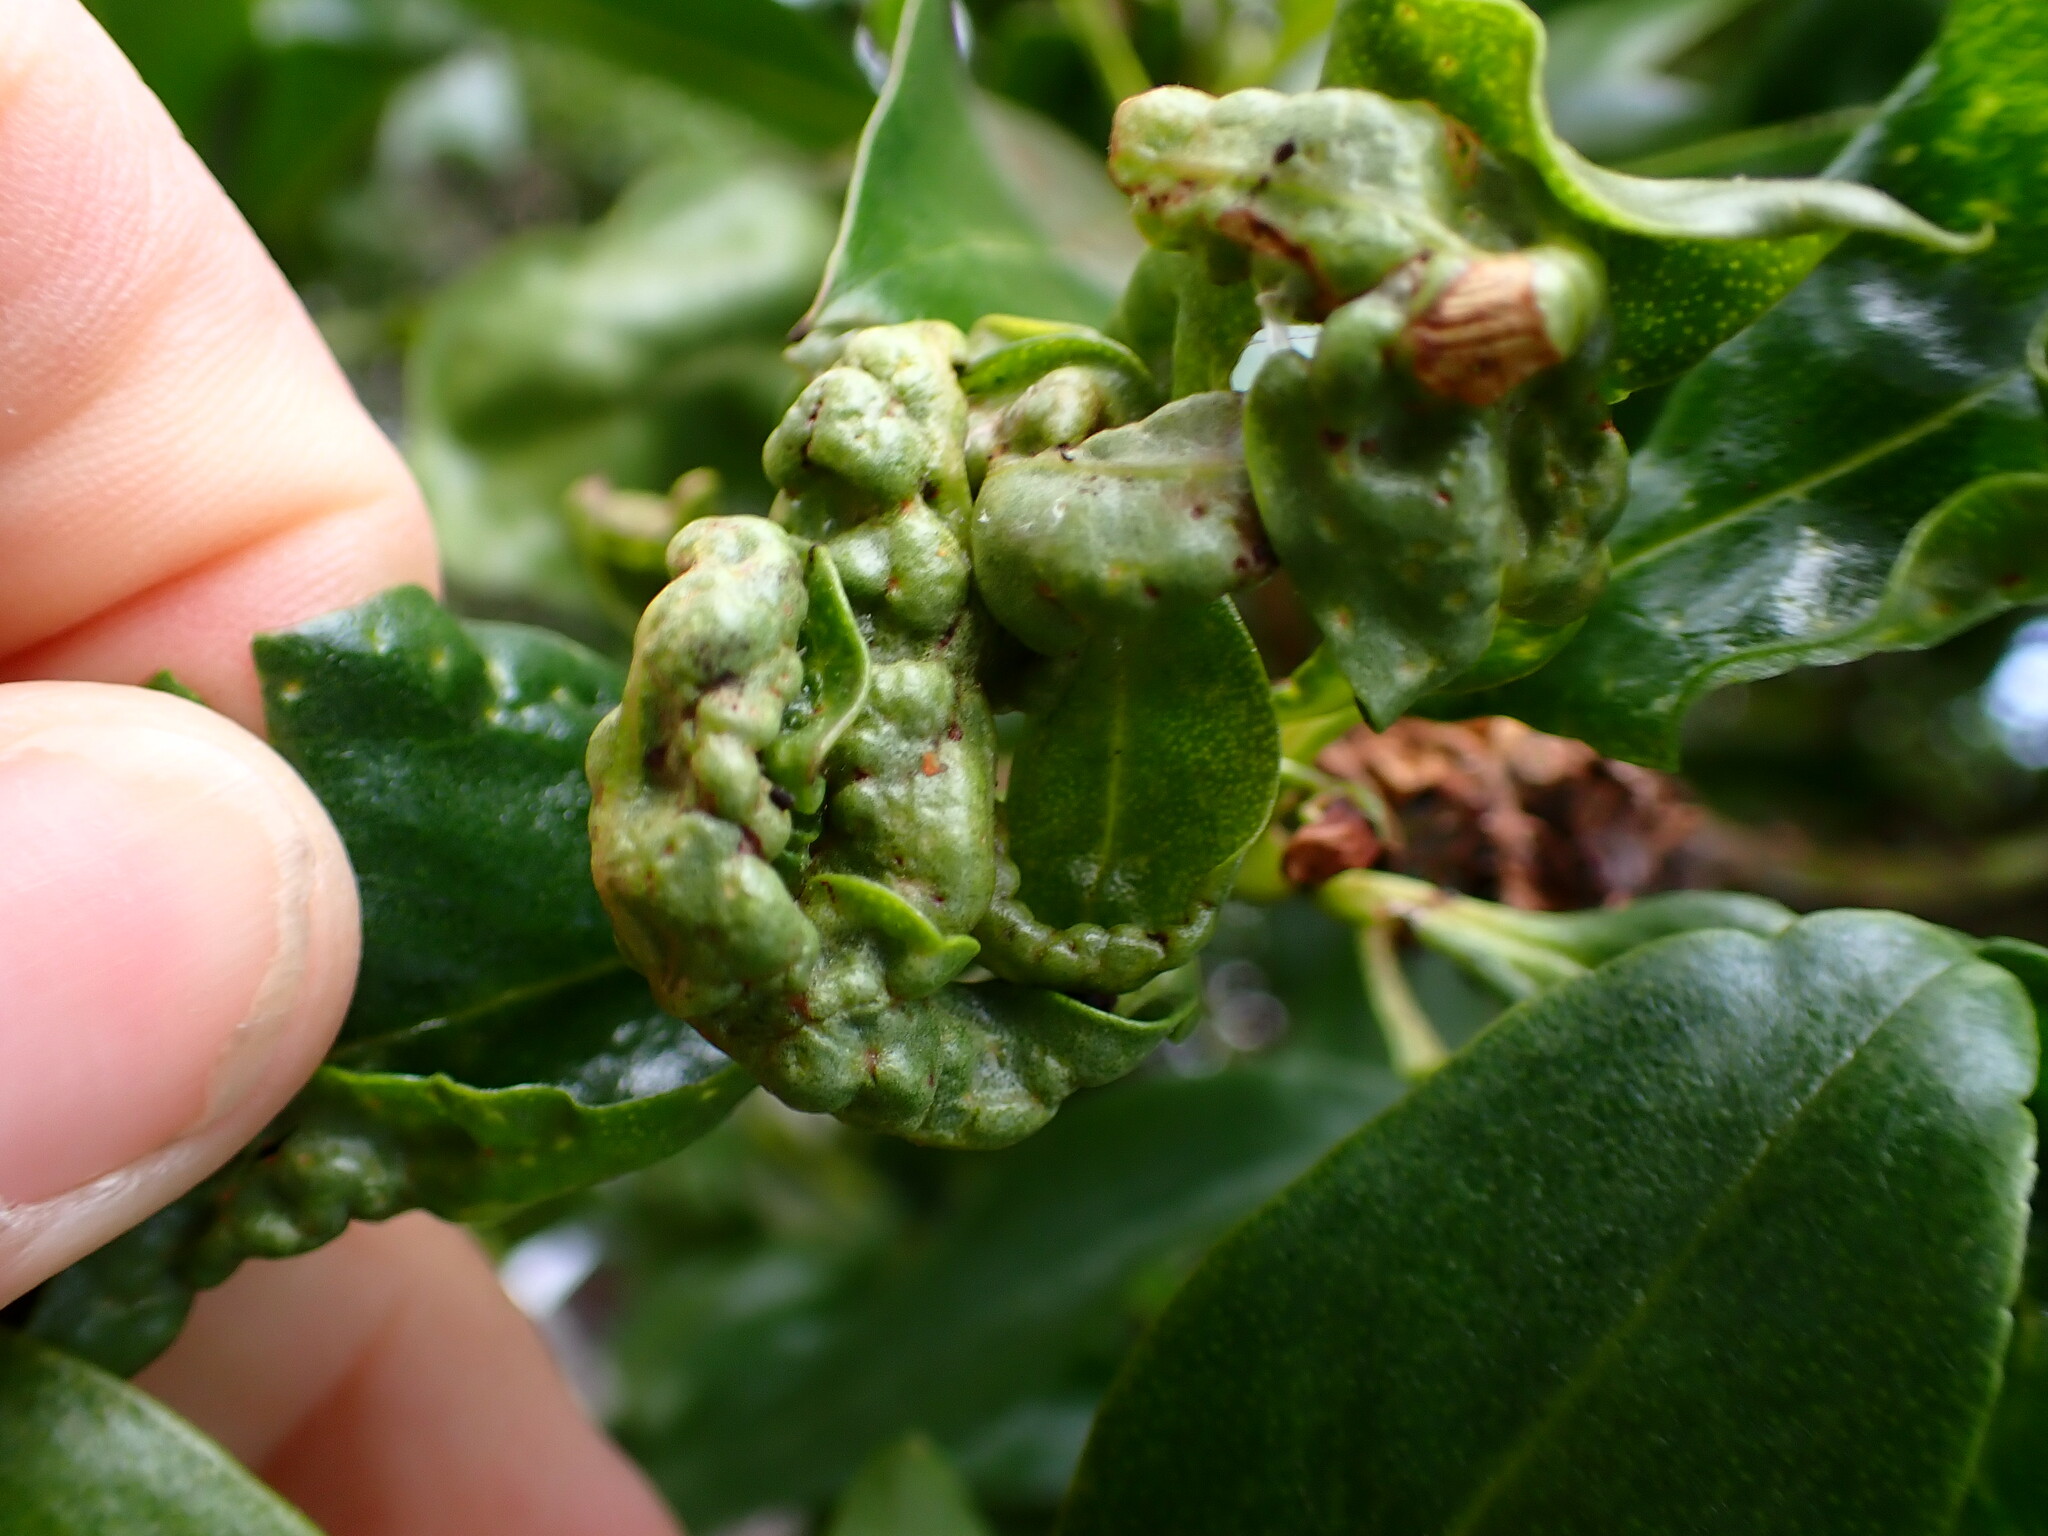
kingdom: Animalia
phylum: Arthropoda
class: Insecta
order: Thysanoptera
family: Phlaeothripidae
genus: Klambothrips
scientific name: Klambothrips myopori
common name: Myoporum thrips
